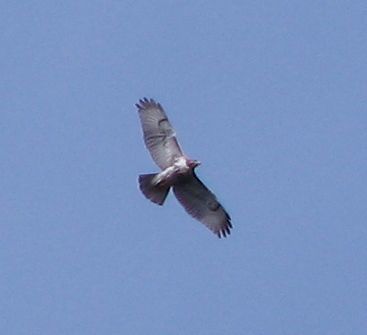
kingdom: Animalia
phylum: Chordata
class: Aves
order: Accipitriformes
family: Accipitridae
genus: Buteo
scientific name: Buteo jamaicensis
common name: Red-tailed hawk
